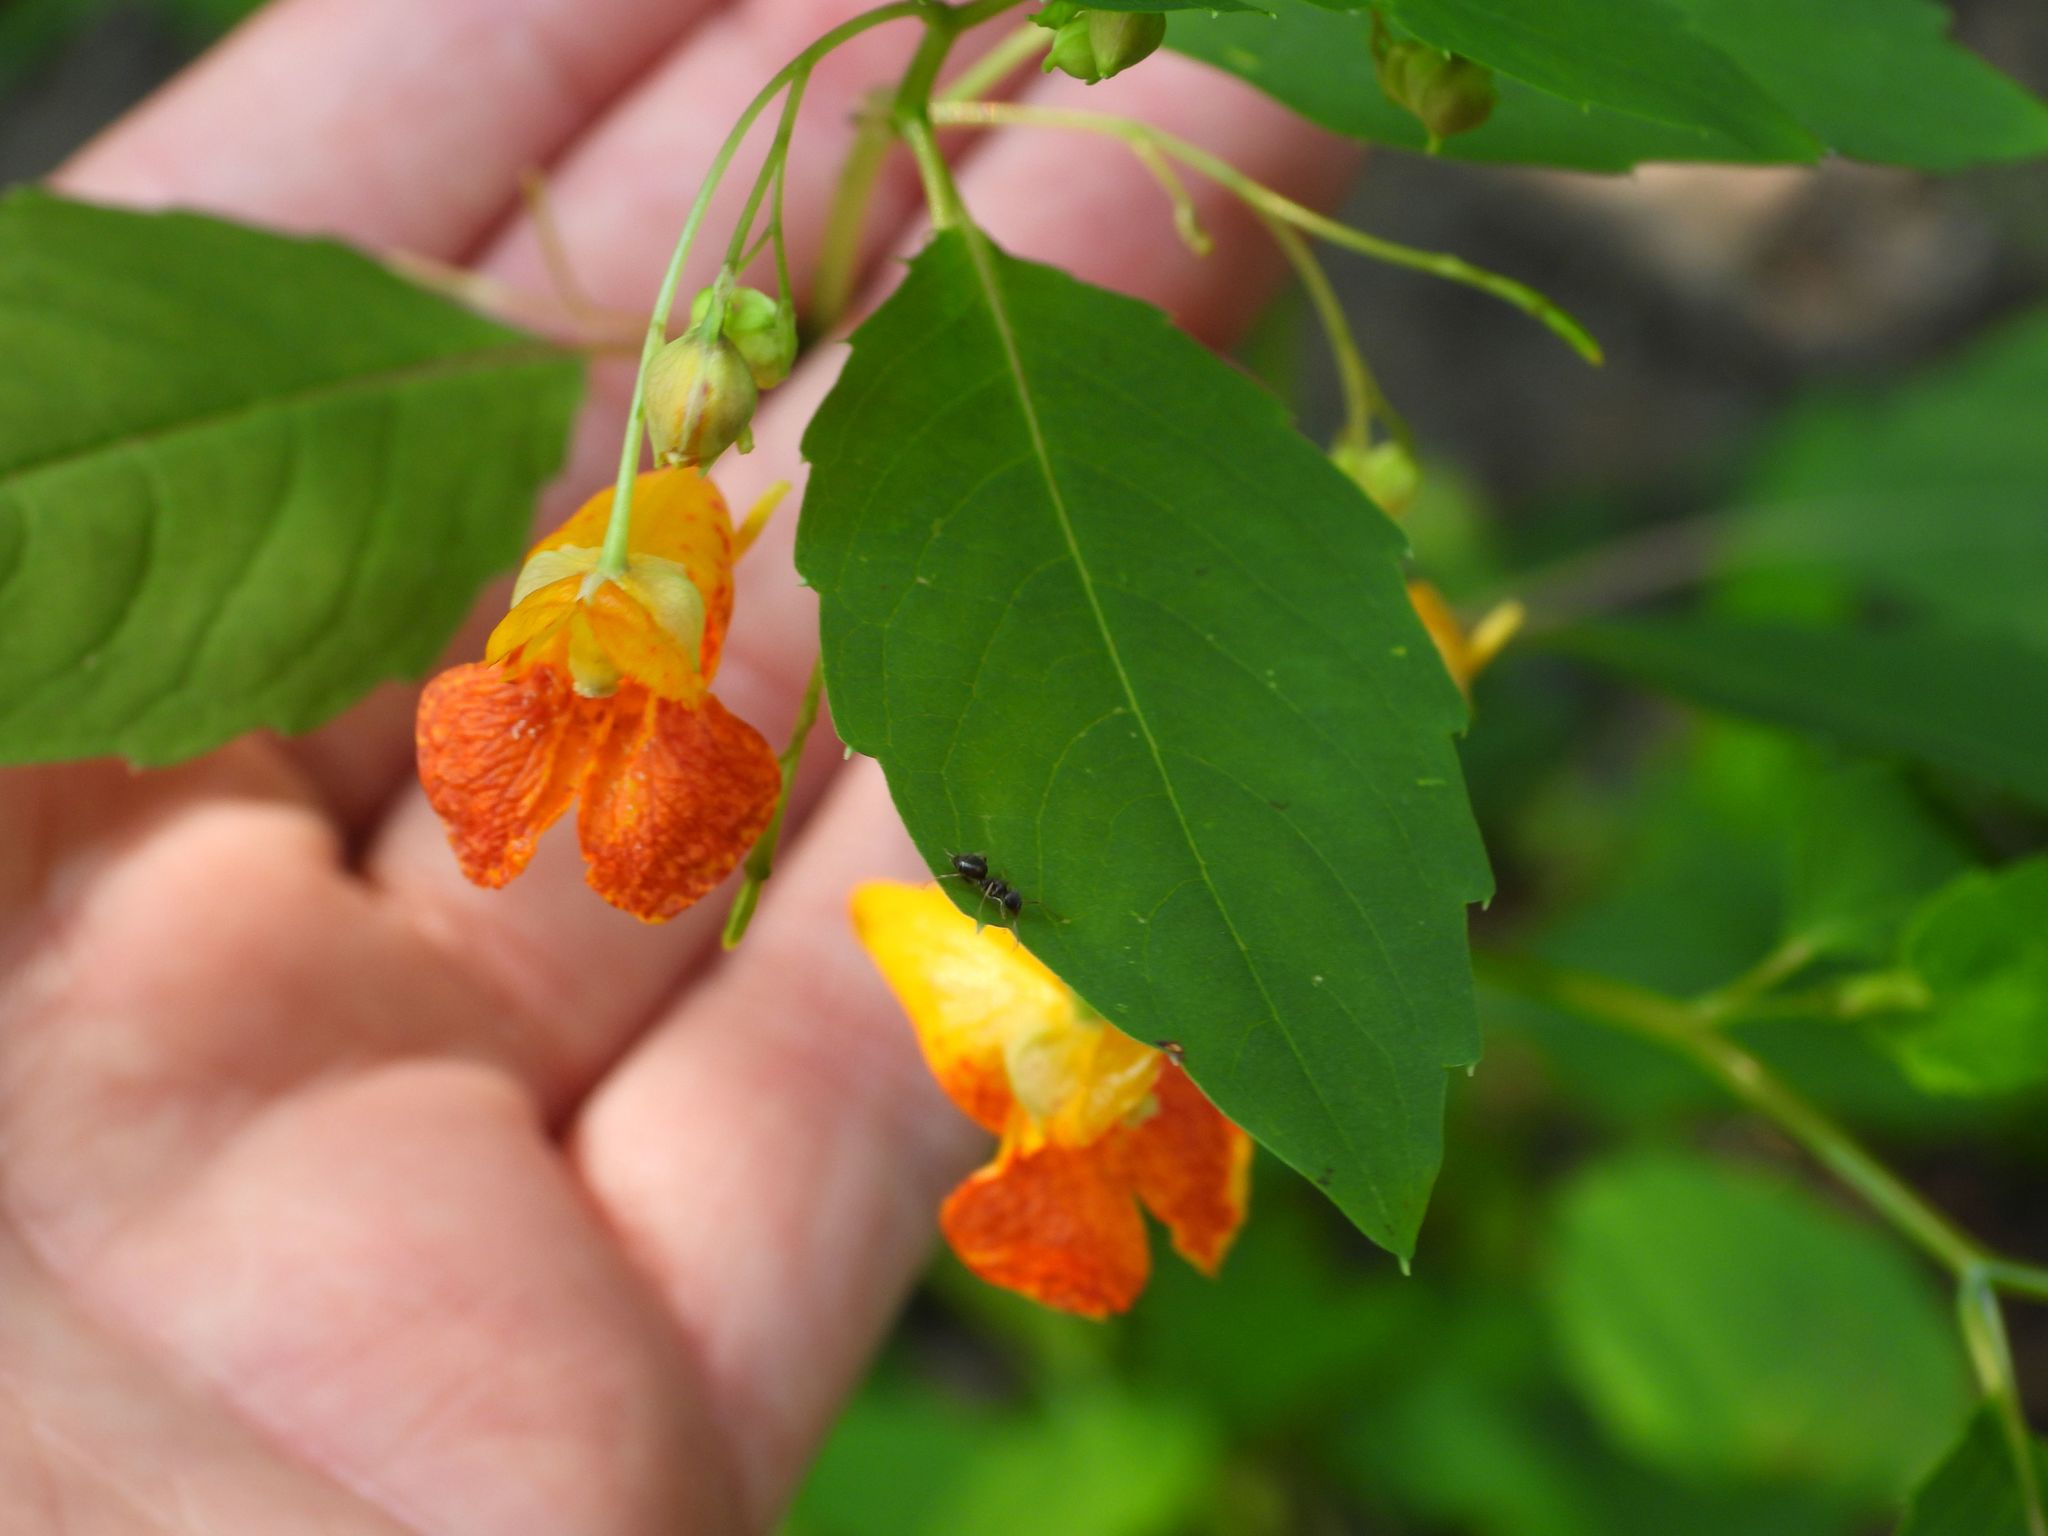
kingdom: Plantae
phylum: Tracheophyta
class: Magnoliopsida
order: Ericales
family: Balsaminaceae
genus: Impatiens
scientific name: Impatiens capensis
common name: Orange balsam
